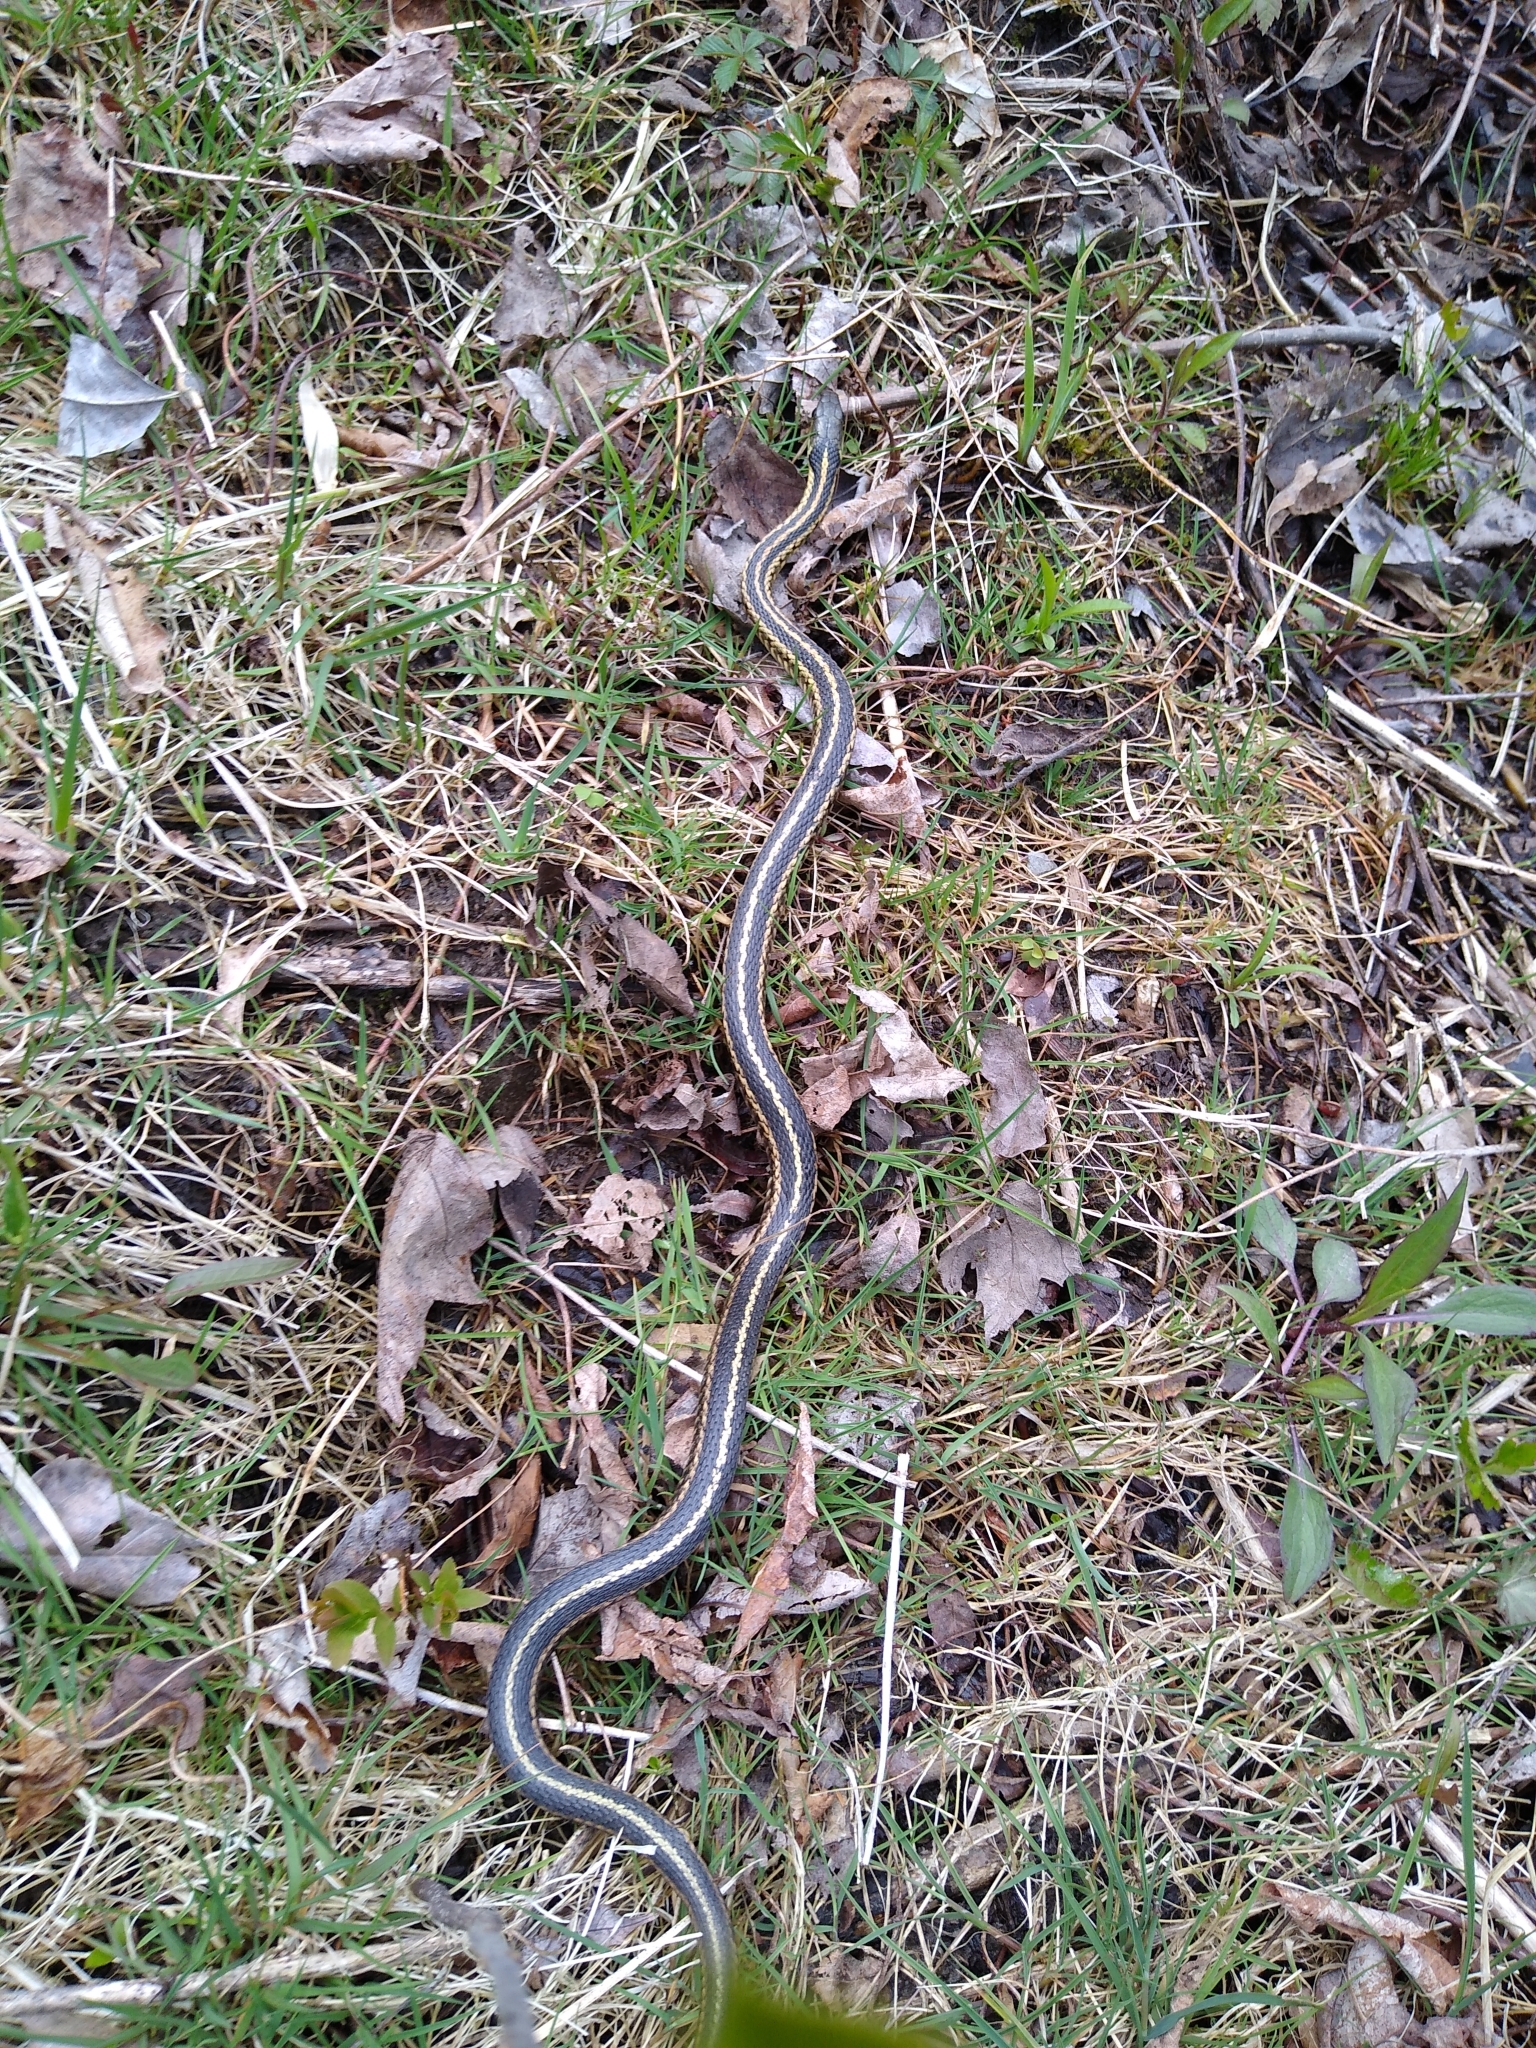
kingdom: Animalia
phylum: Chordata
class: Squamata
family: Colubridae
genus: Thamnophis
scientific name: Thamnophis sirtalis
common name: Common garter snake
